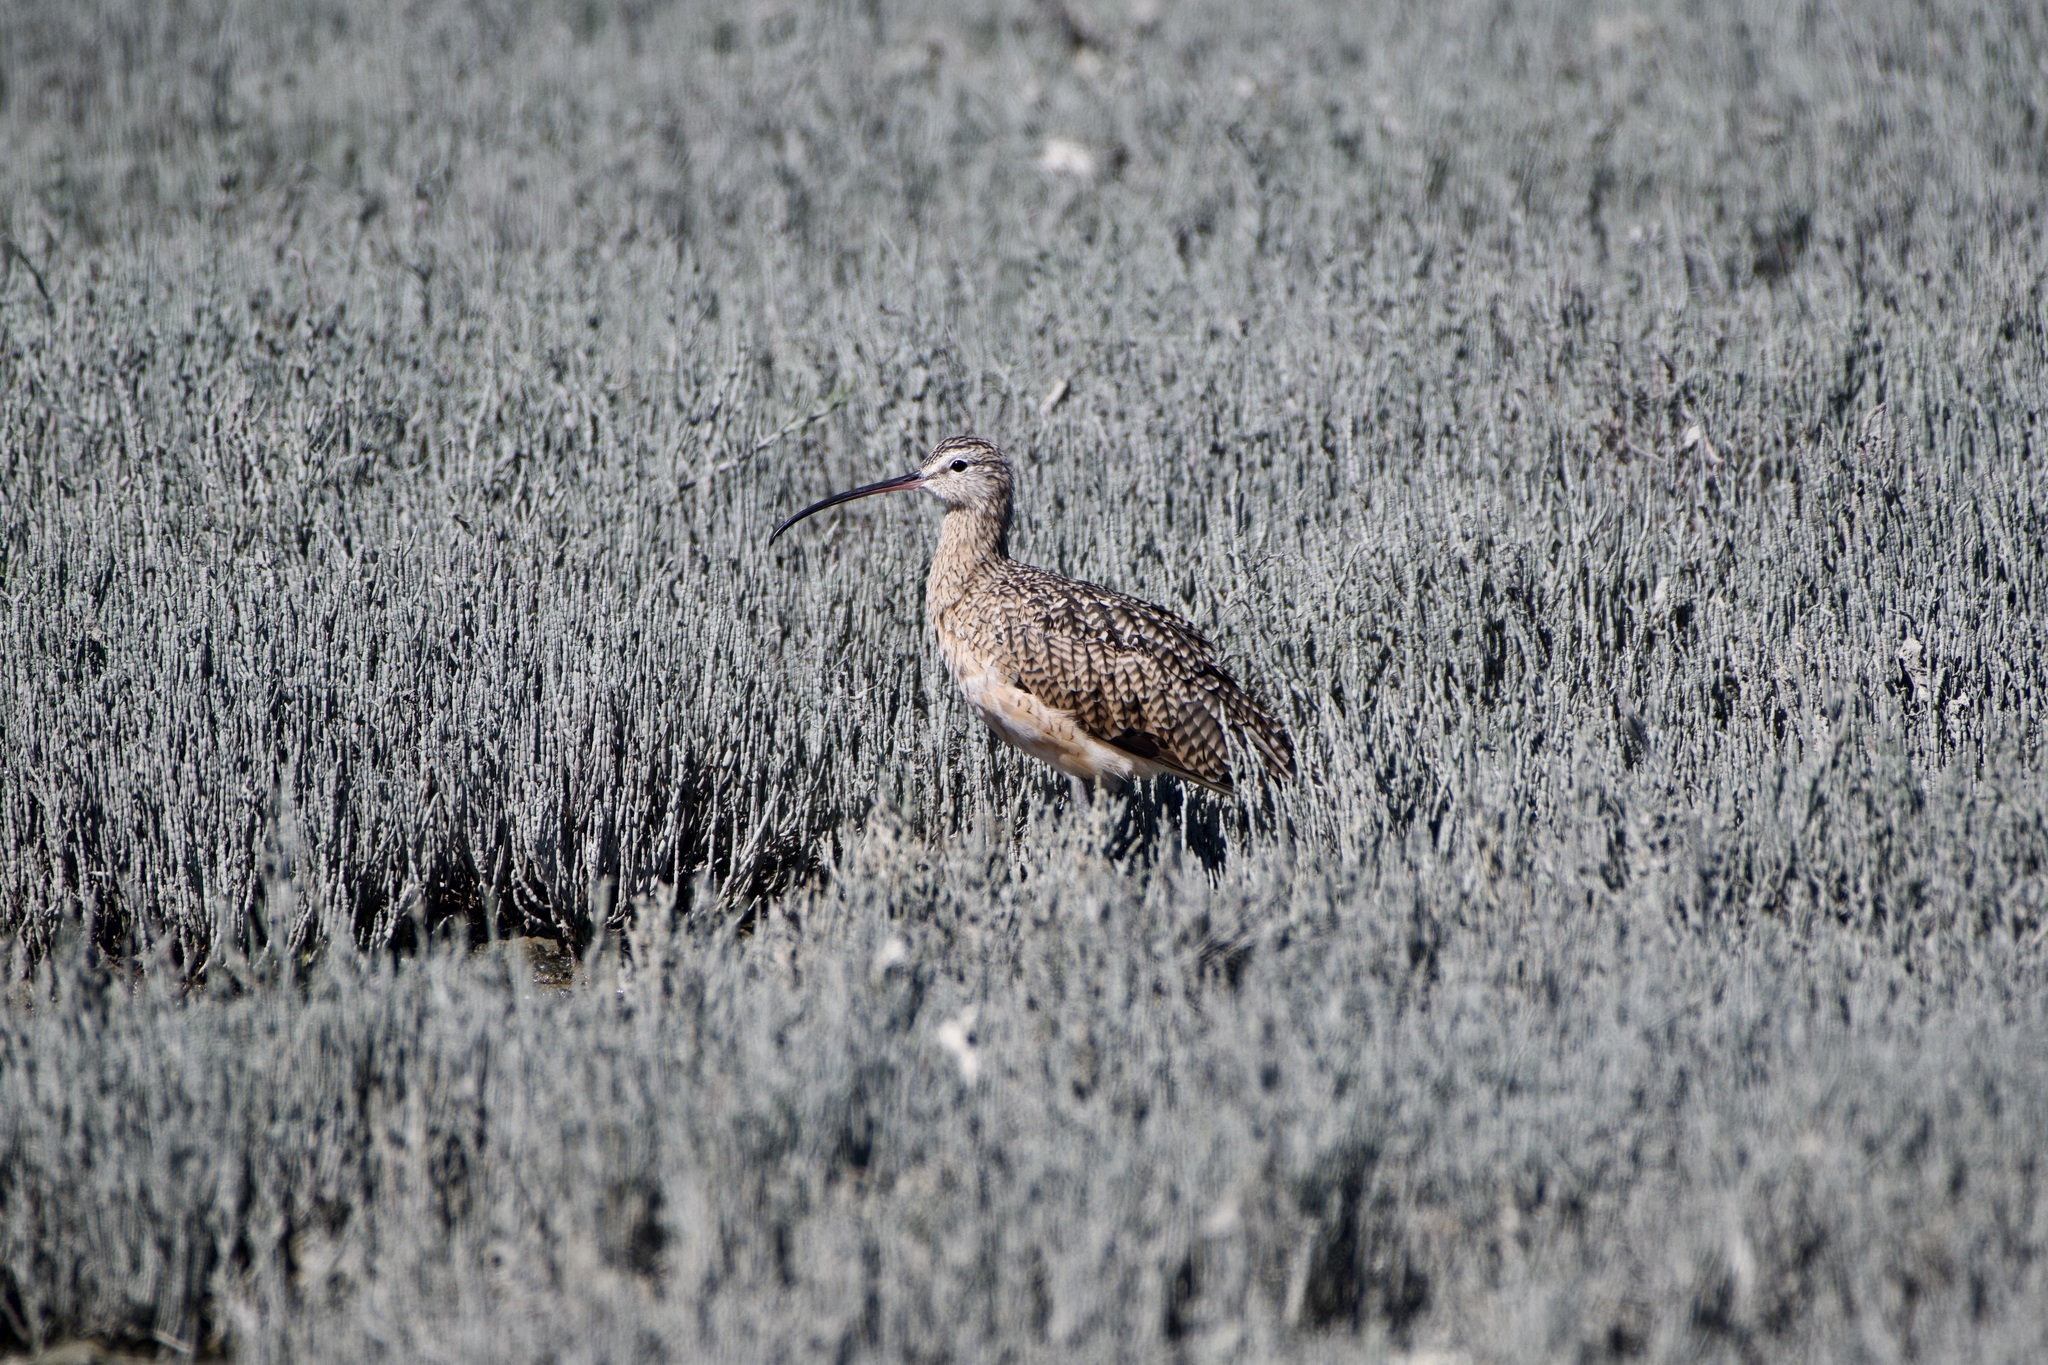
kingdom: Animalia
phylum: Chordata
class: Aves
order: Charadriiformes
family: Scolopacidae
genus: Numenius
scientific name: Numenius americanus
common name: Long-billed curlew
